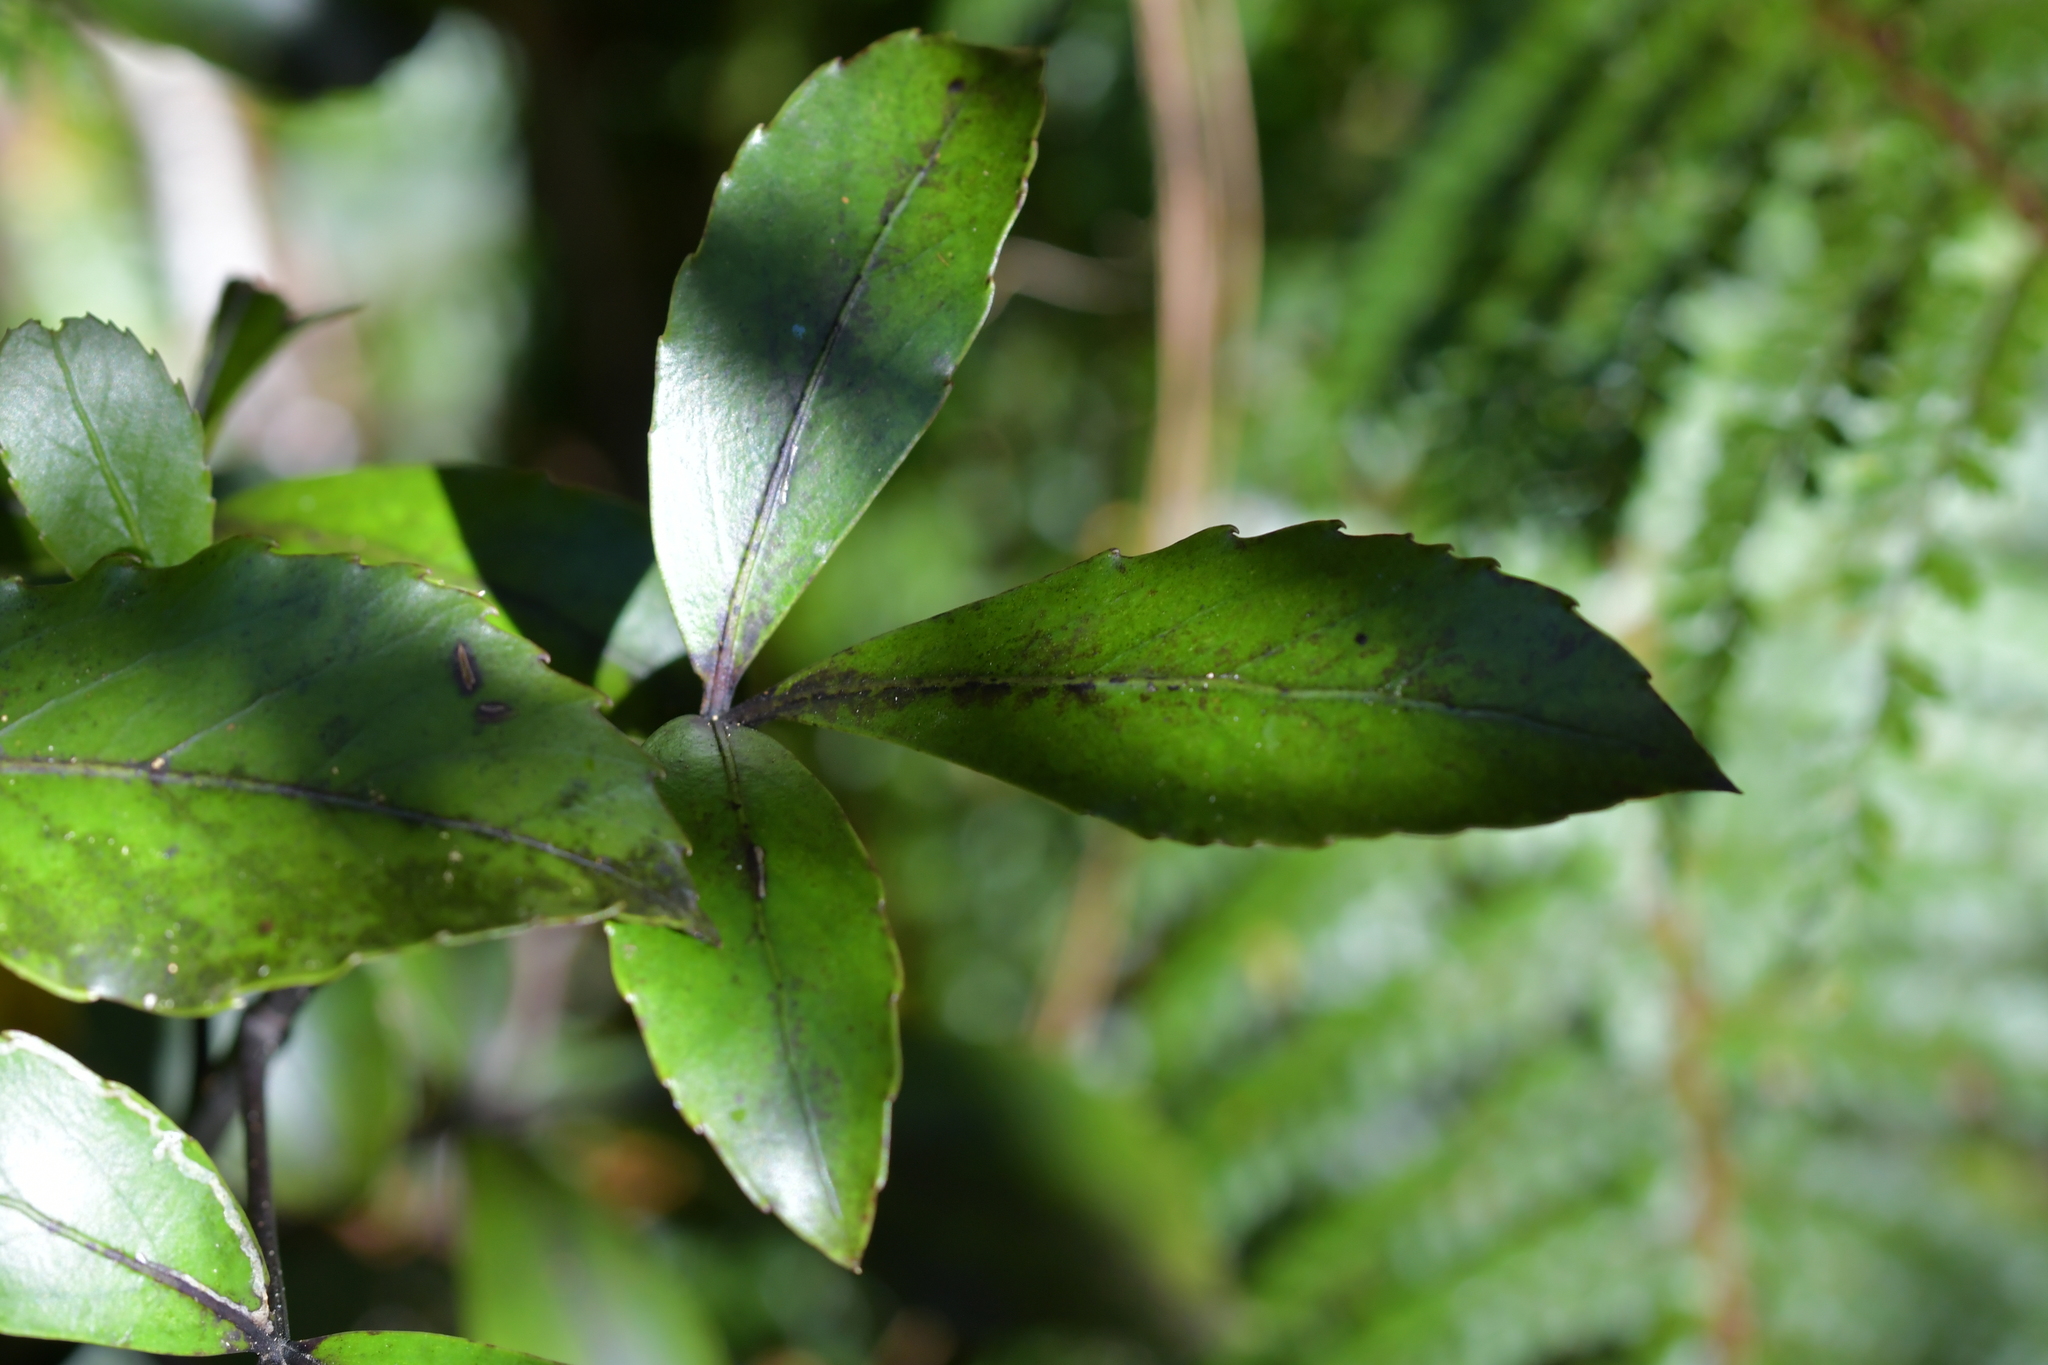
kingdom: Plantae
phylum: Tracheophyta
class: Magnoliopsida
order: Apiales
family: Araliaceae
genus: Raukaua
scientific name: Raukaua simplex
